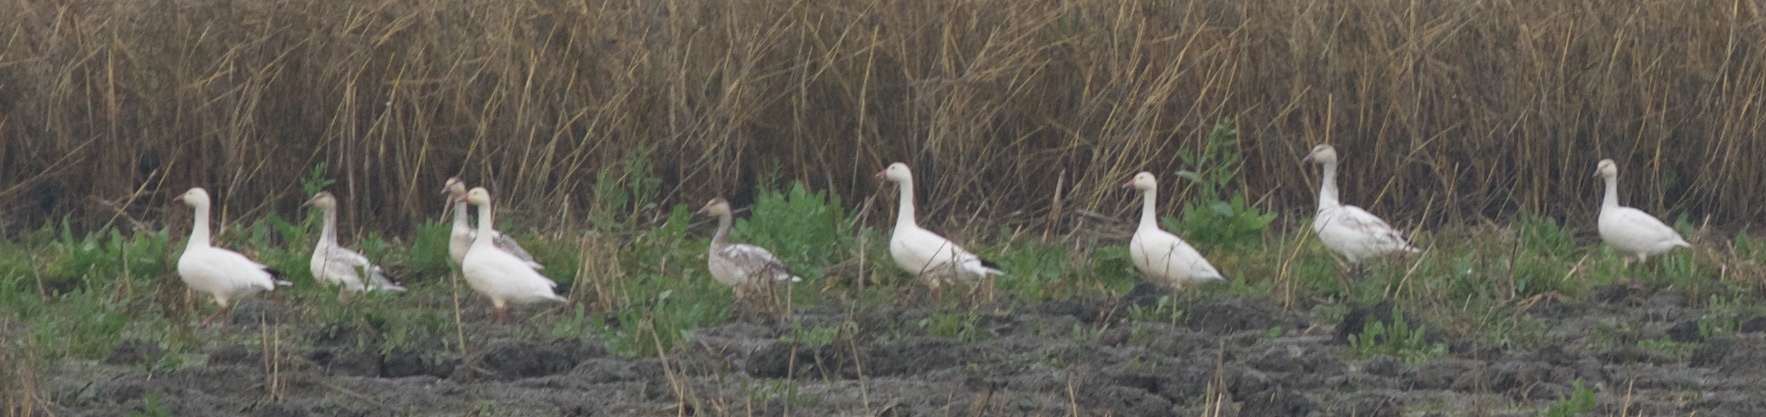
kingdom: Animalia
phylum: Chordata
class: Aves
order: Anseriformes
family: Anatidae
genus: Anser
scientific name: Anser caerulescens
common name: Snow goose
